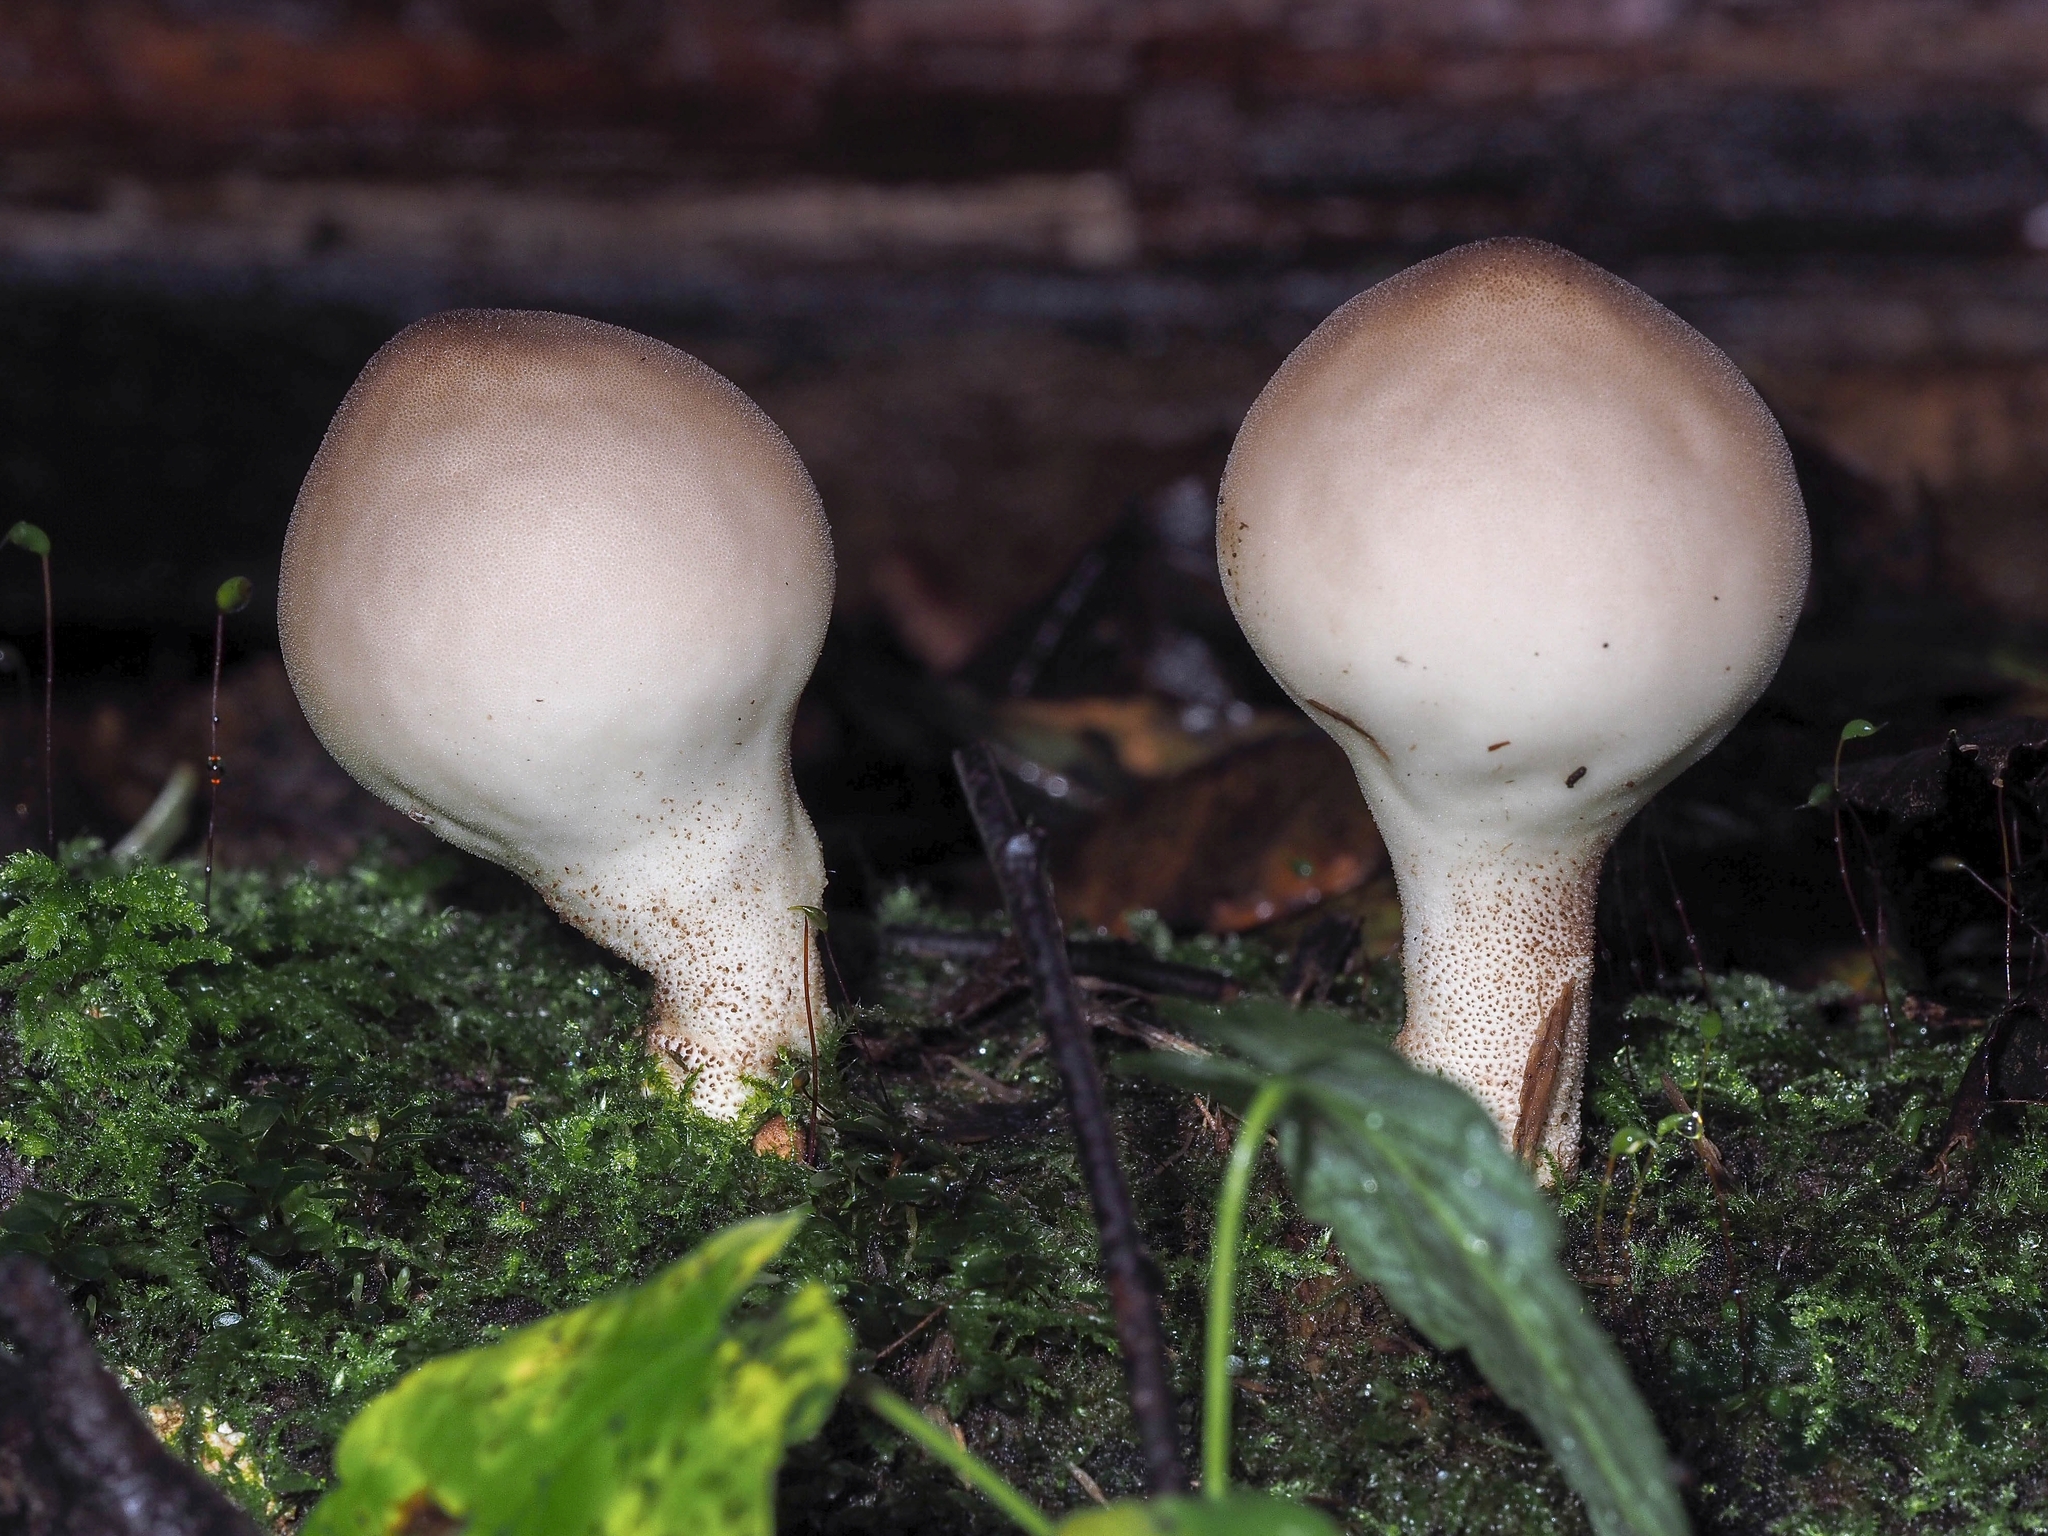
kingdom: Fungi
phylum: Basidiomycota
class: Agaricomycetes
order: Agaricales
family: Lycoperdaceae
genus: Apioperdon
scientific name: Apioperdon pyriforme
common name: Pear-shaped puffball
